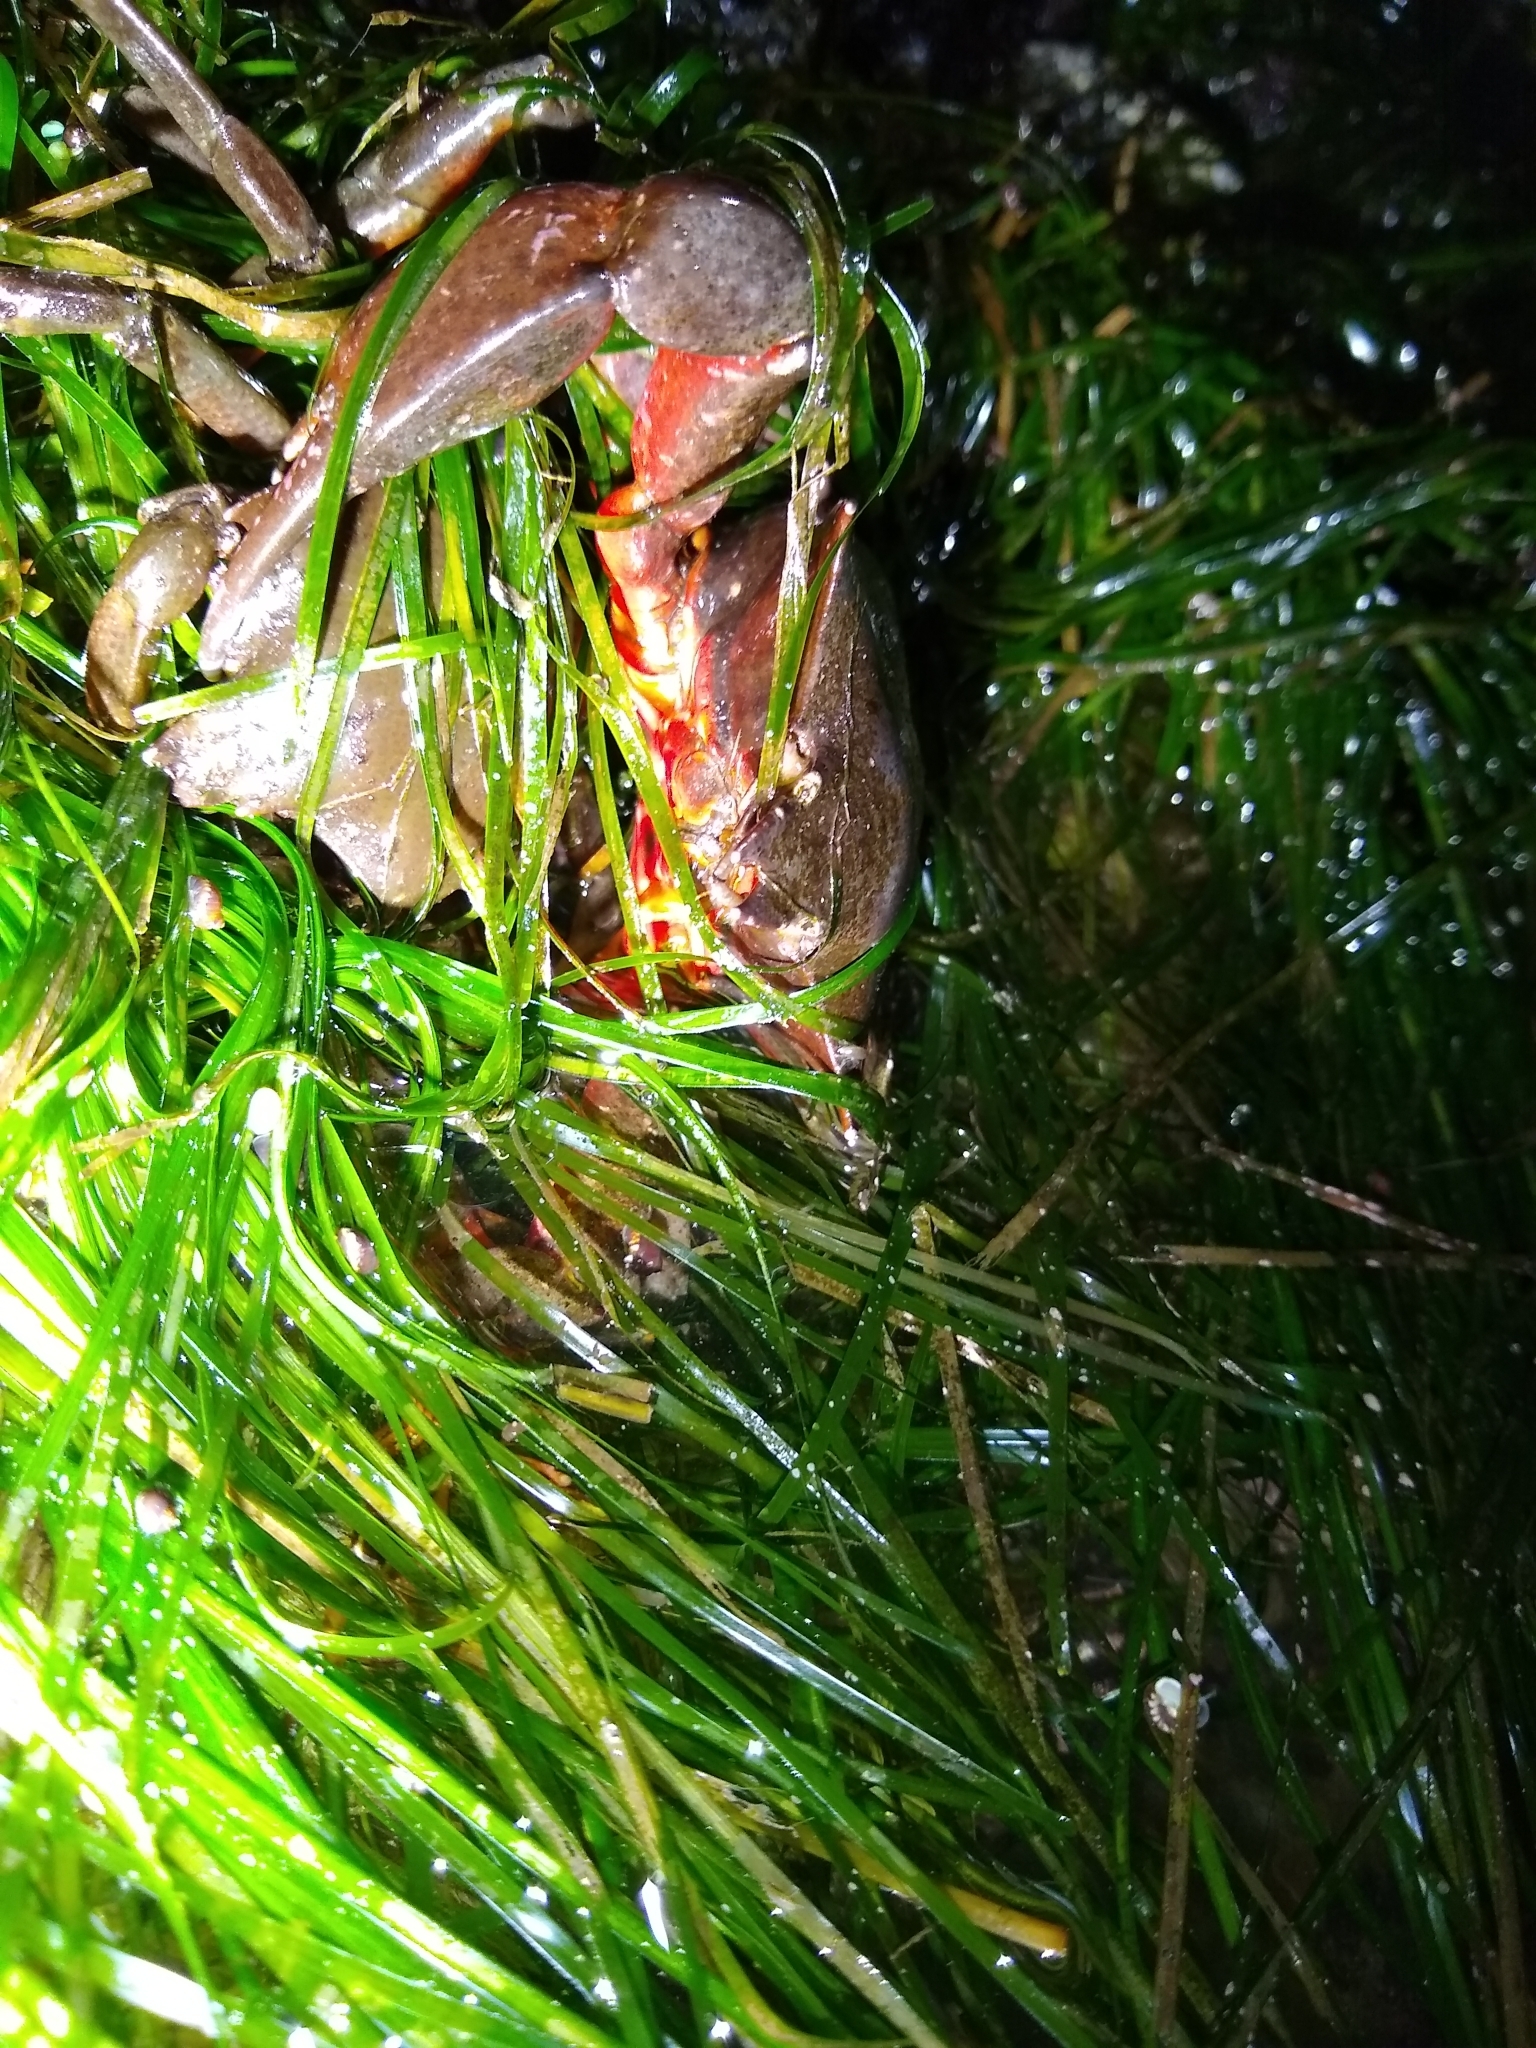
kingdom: Animalia
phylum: Arthropoda
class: Malacostraca
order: Decapoda
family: Epialtidae
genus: Pugettia
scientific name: Pugettia producta
